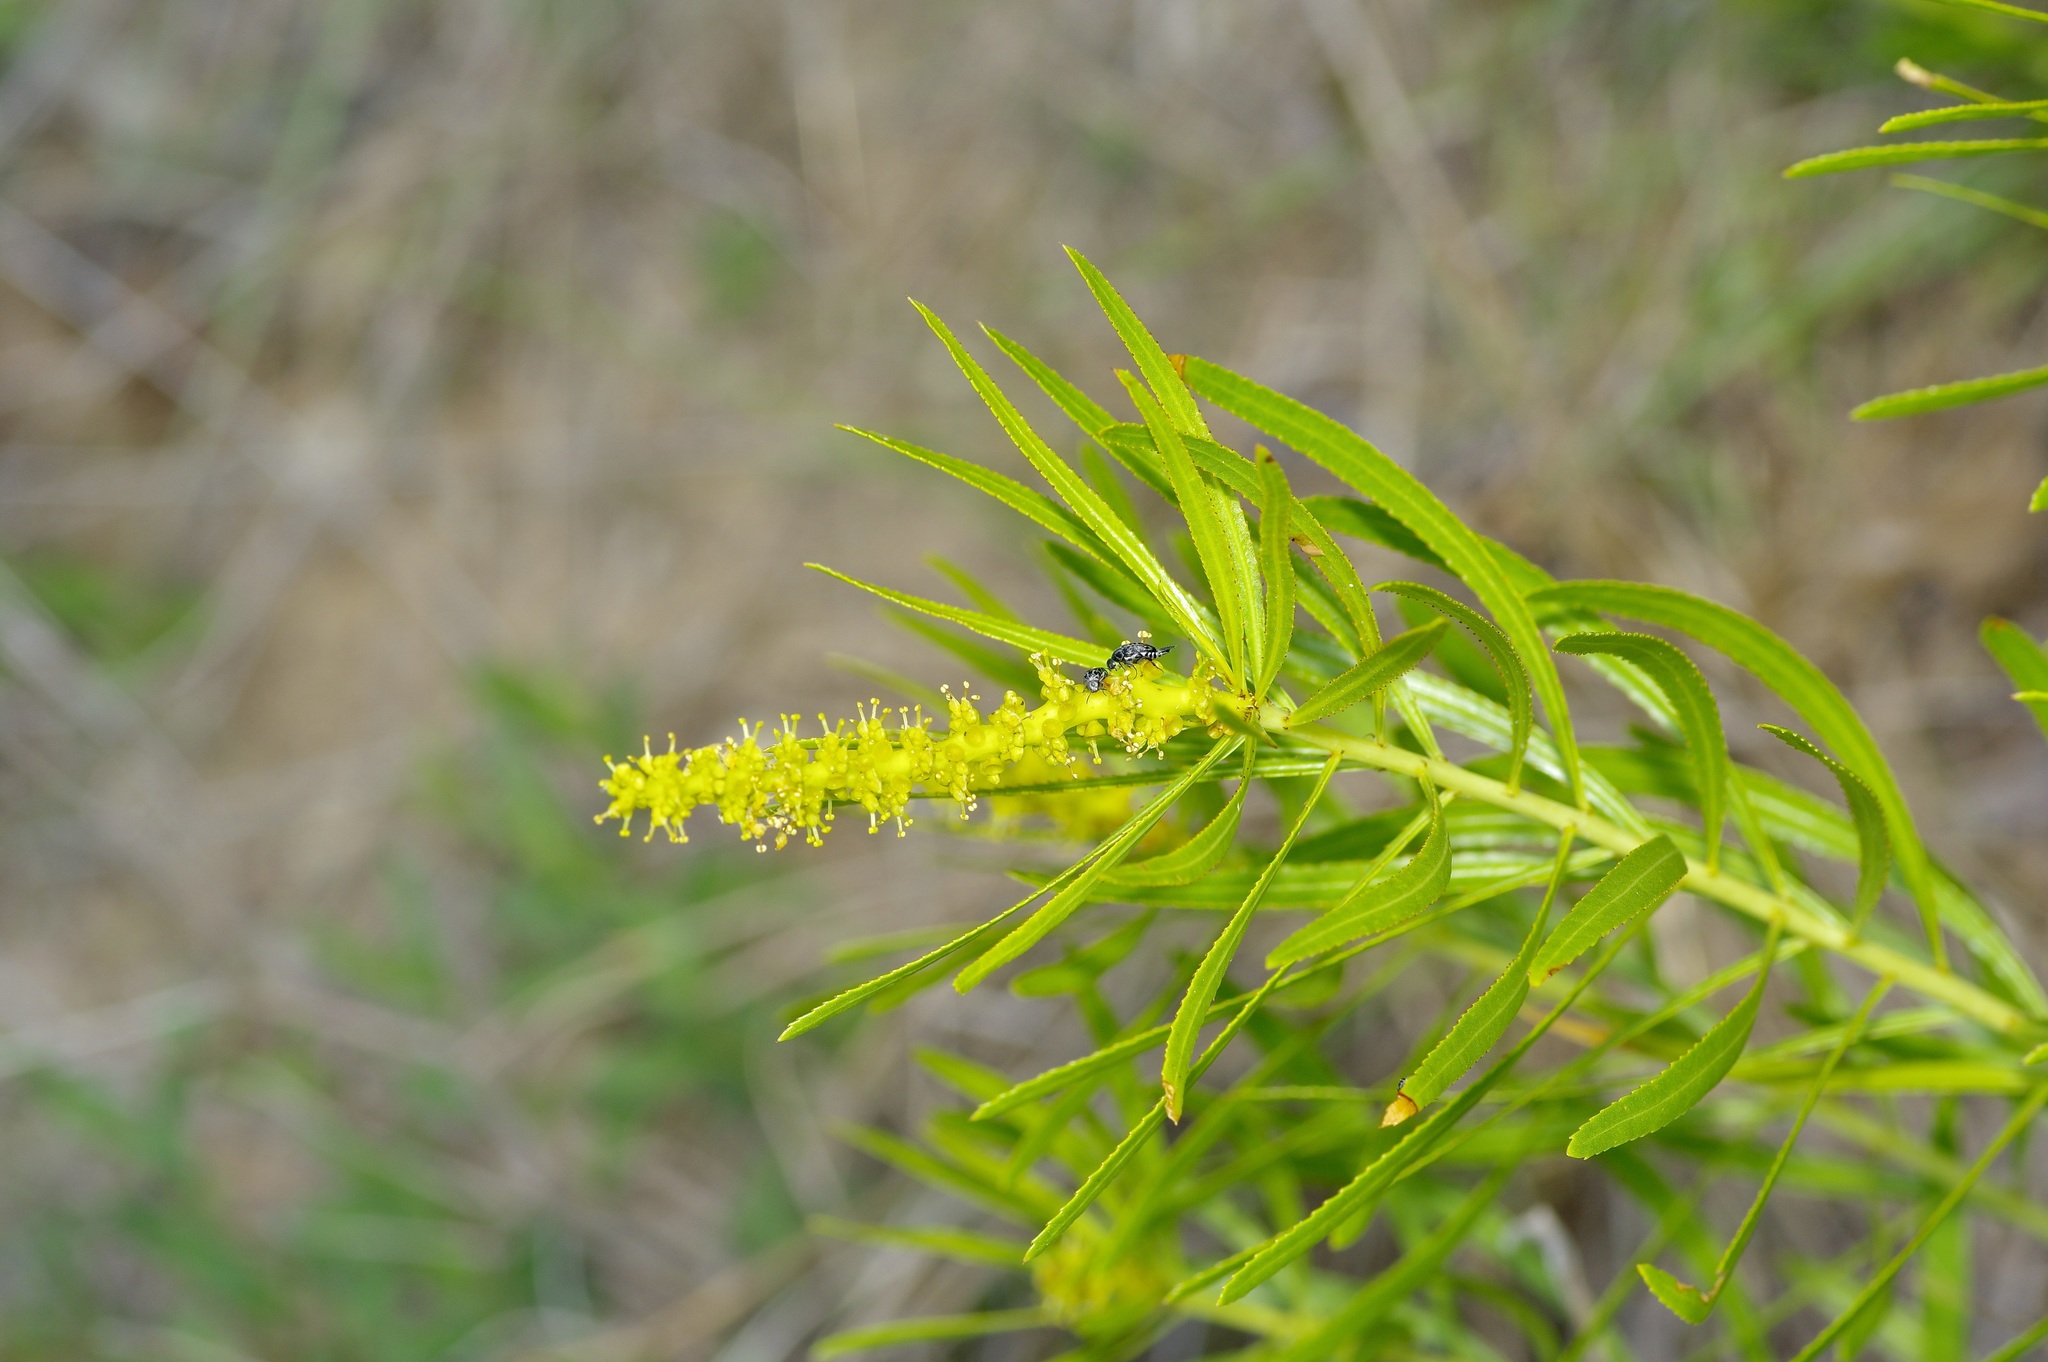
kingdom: Plantae
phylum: Tracheophyta
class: Magnoliopsida
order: Malpighiales
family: Euphorbiaceae
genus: Stillingia
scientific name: Stillingia texana
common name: Texas stillingia
